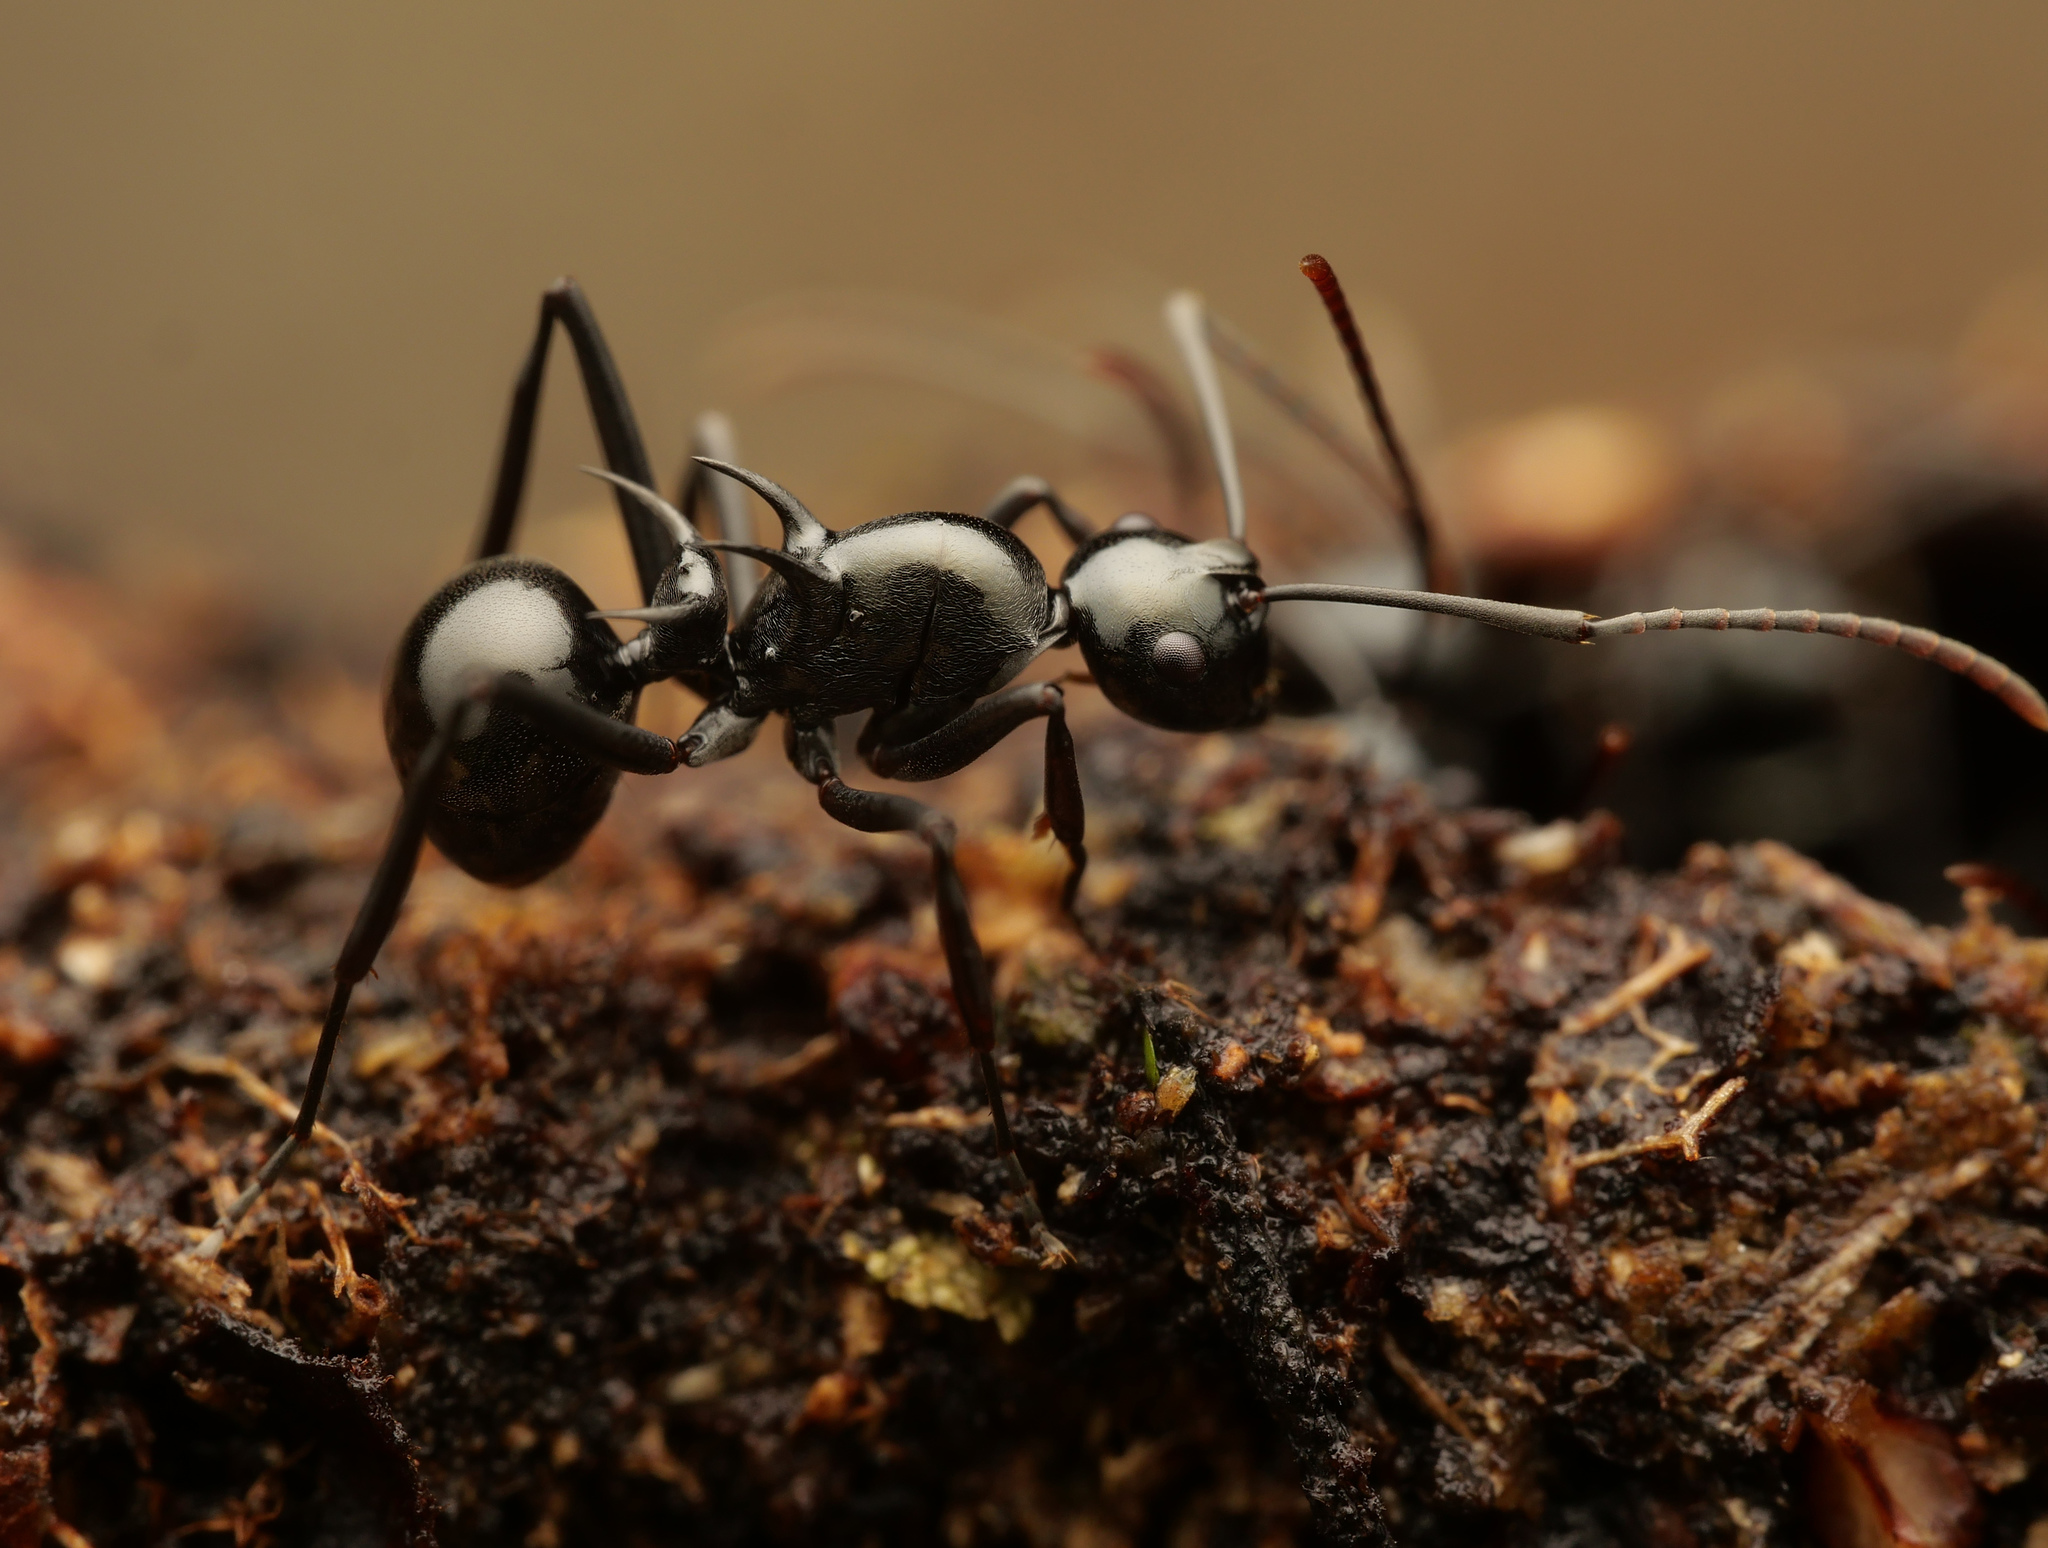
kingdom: Animalia
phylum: Arthropoda
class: Insecta
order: Hymenoptera
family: Formicidae
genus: Polyrhachis
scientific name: Polyrhachis mucronata
